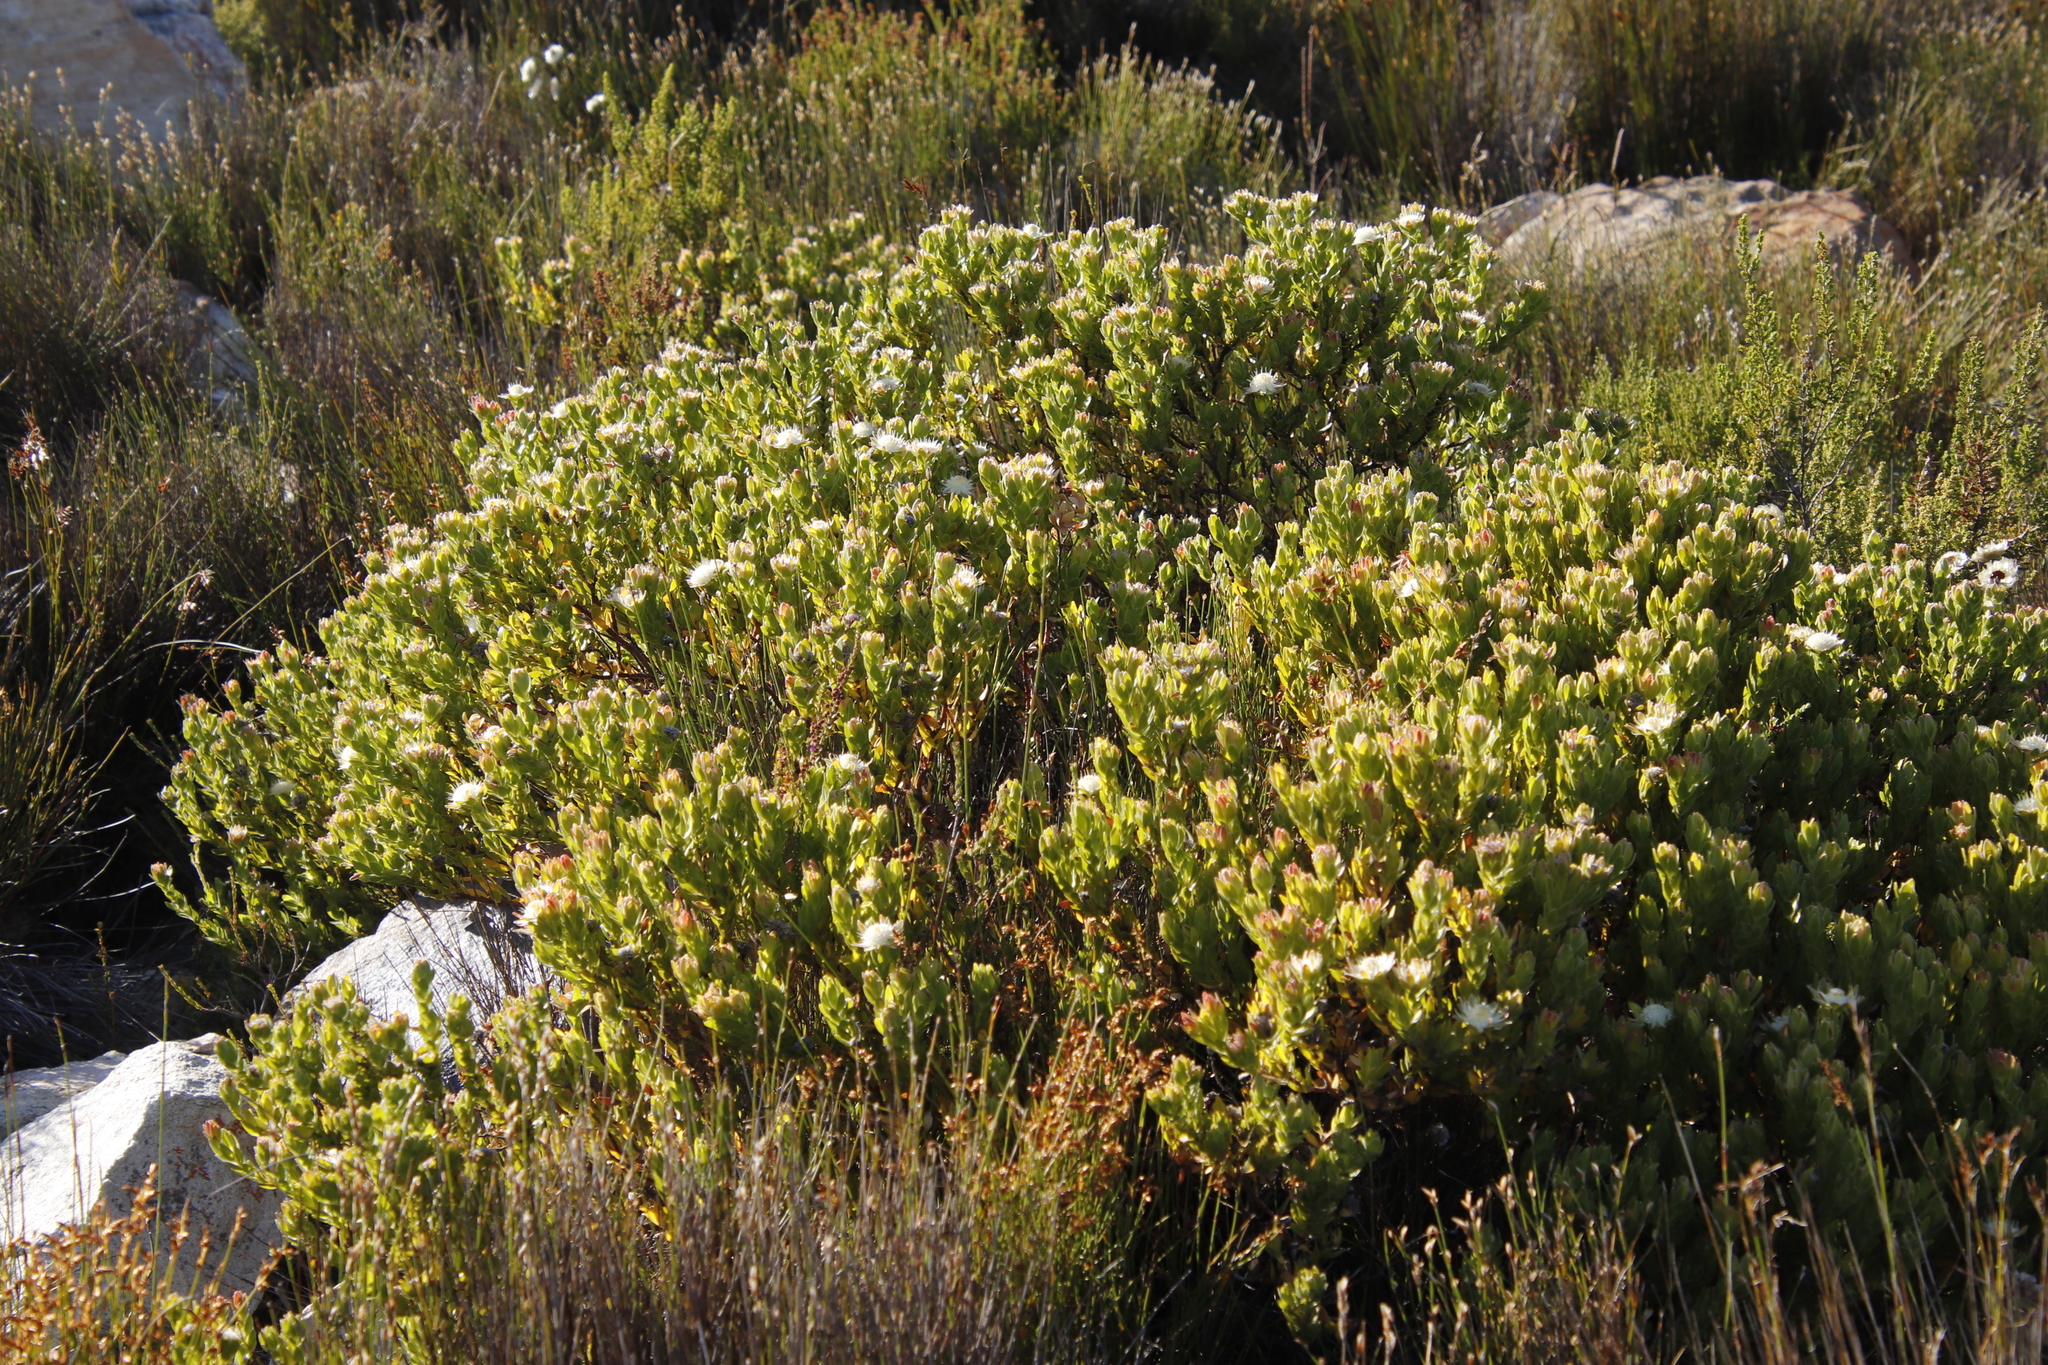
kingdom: Plantae
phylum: Tracheophyta
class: Magnoliopsida
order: Proteales
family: Proteaceae
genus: Diastella
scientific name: Diastella thymelaeoides
